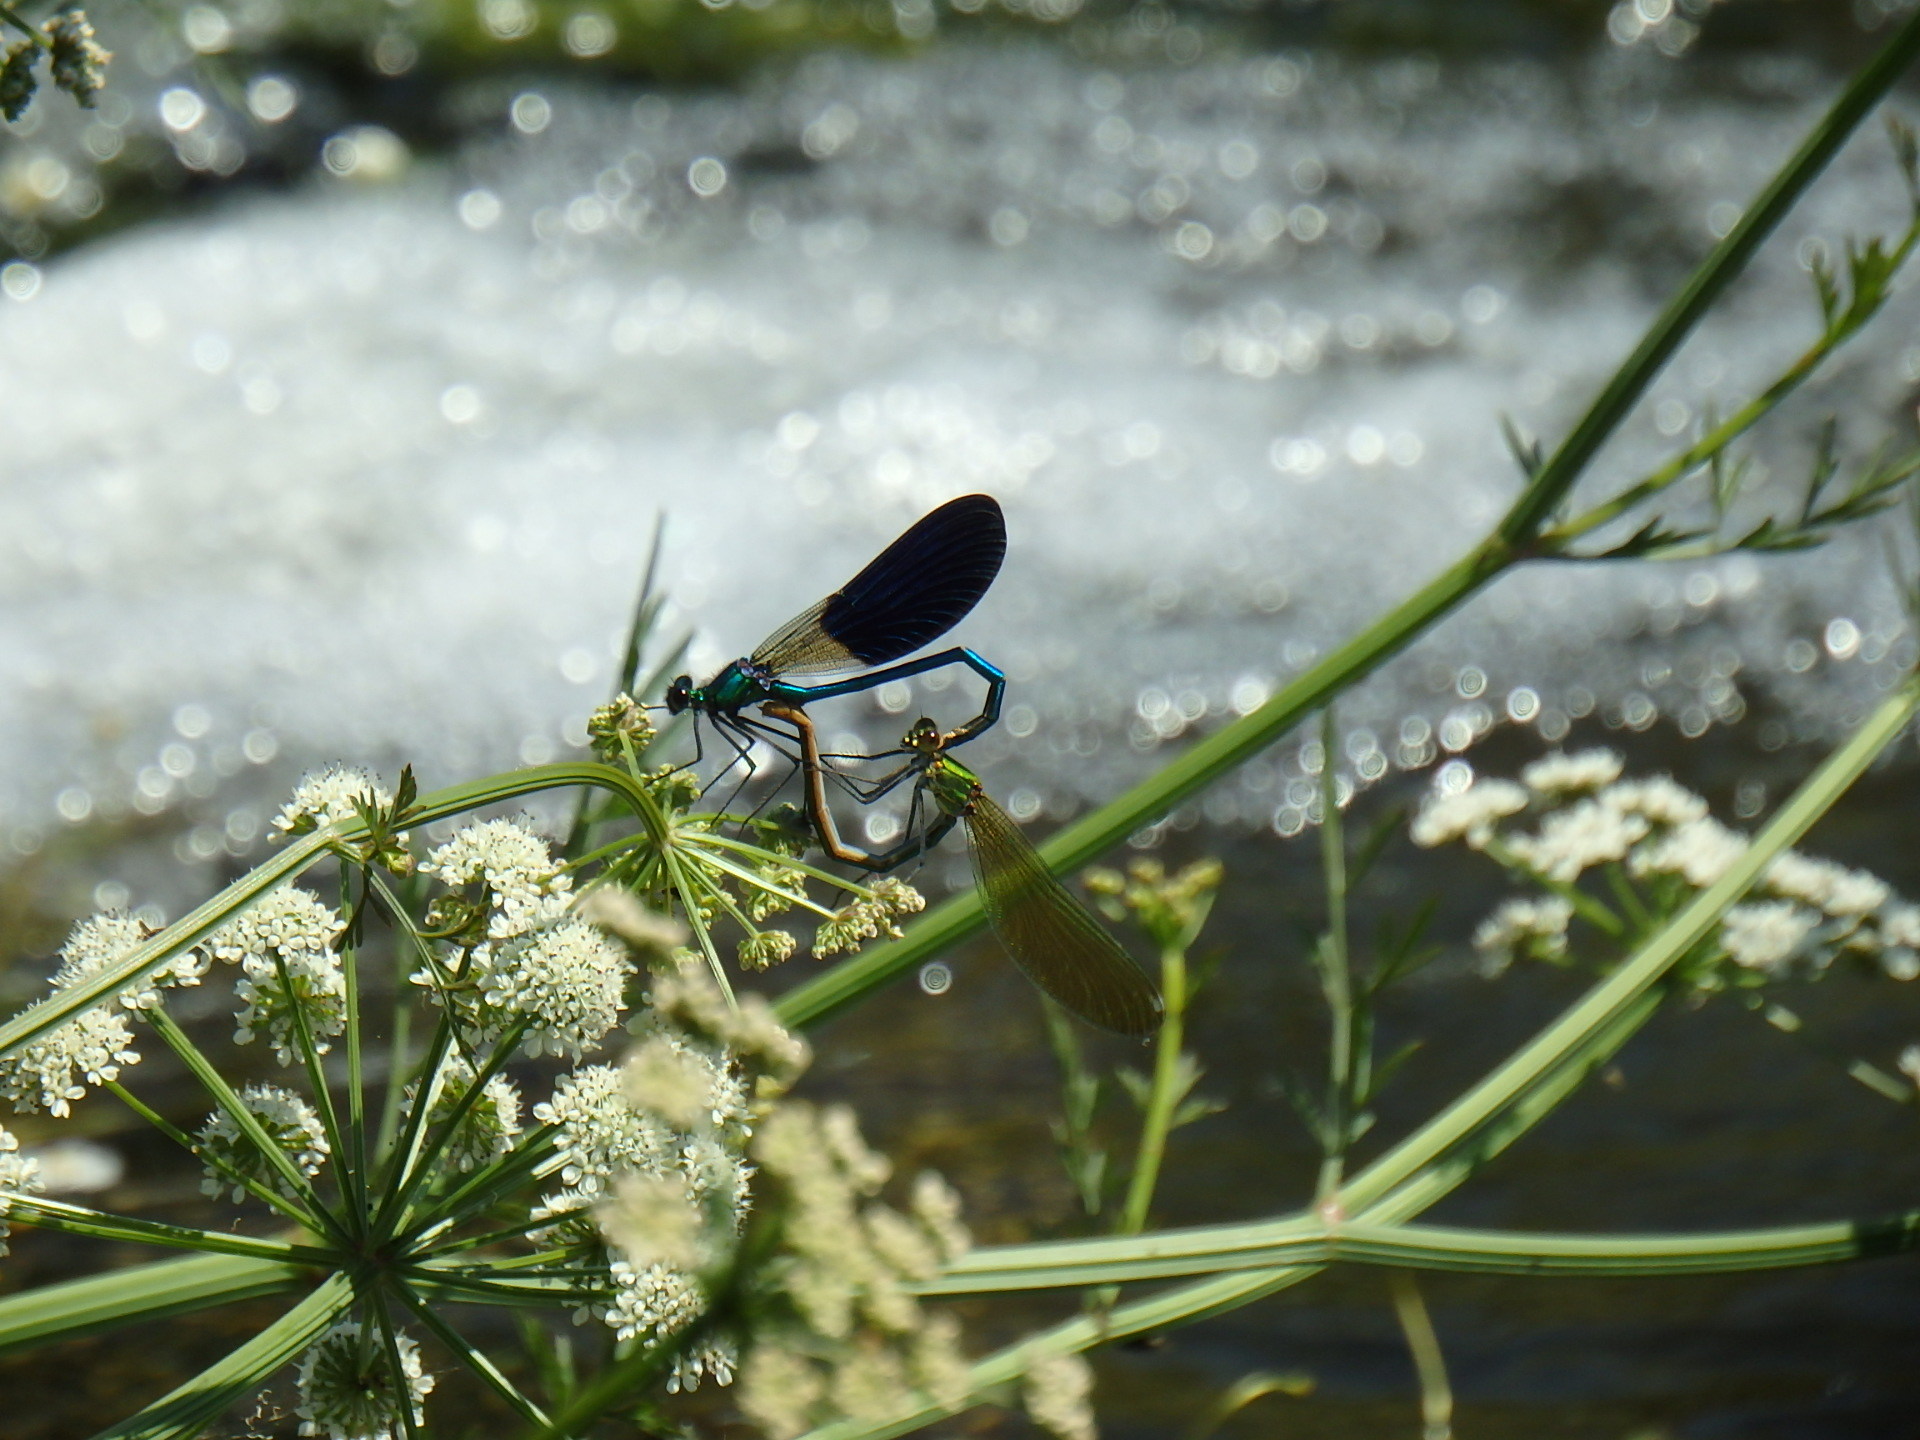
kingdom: Animalia
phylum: Arthropoda
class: Insecta
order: Odonata
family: Calopterygidae
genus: Calopteryx
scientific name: Calopteryx xanthostoma
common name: Western demoiselle
